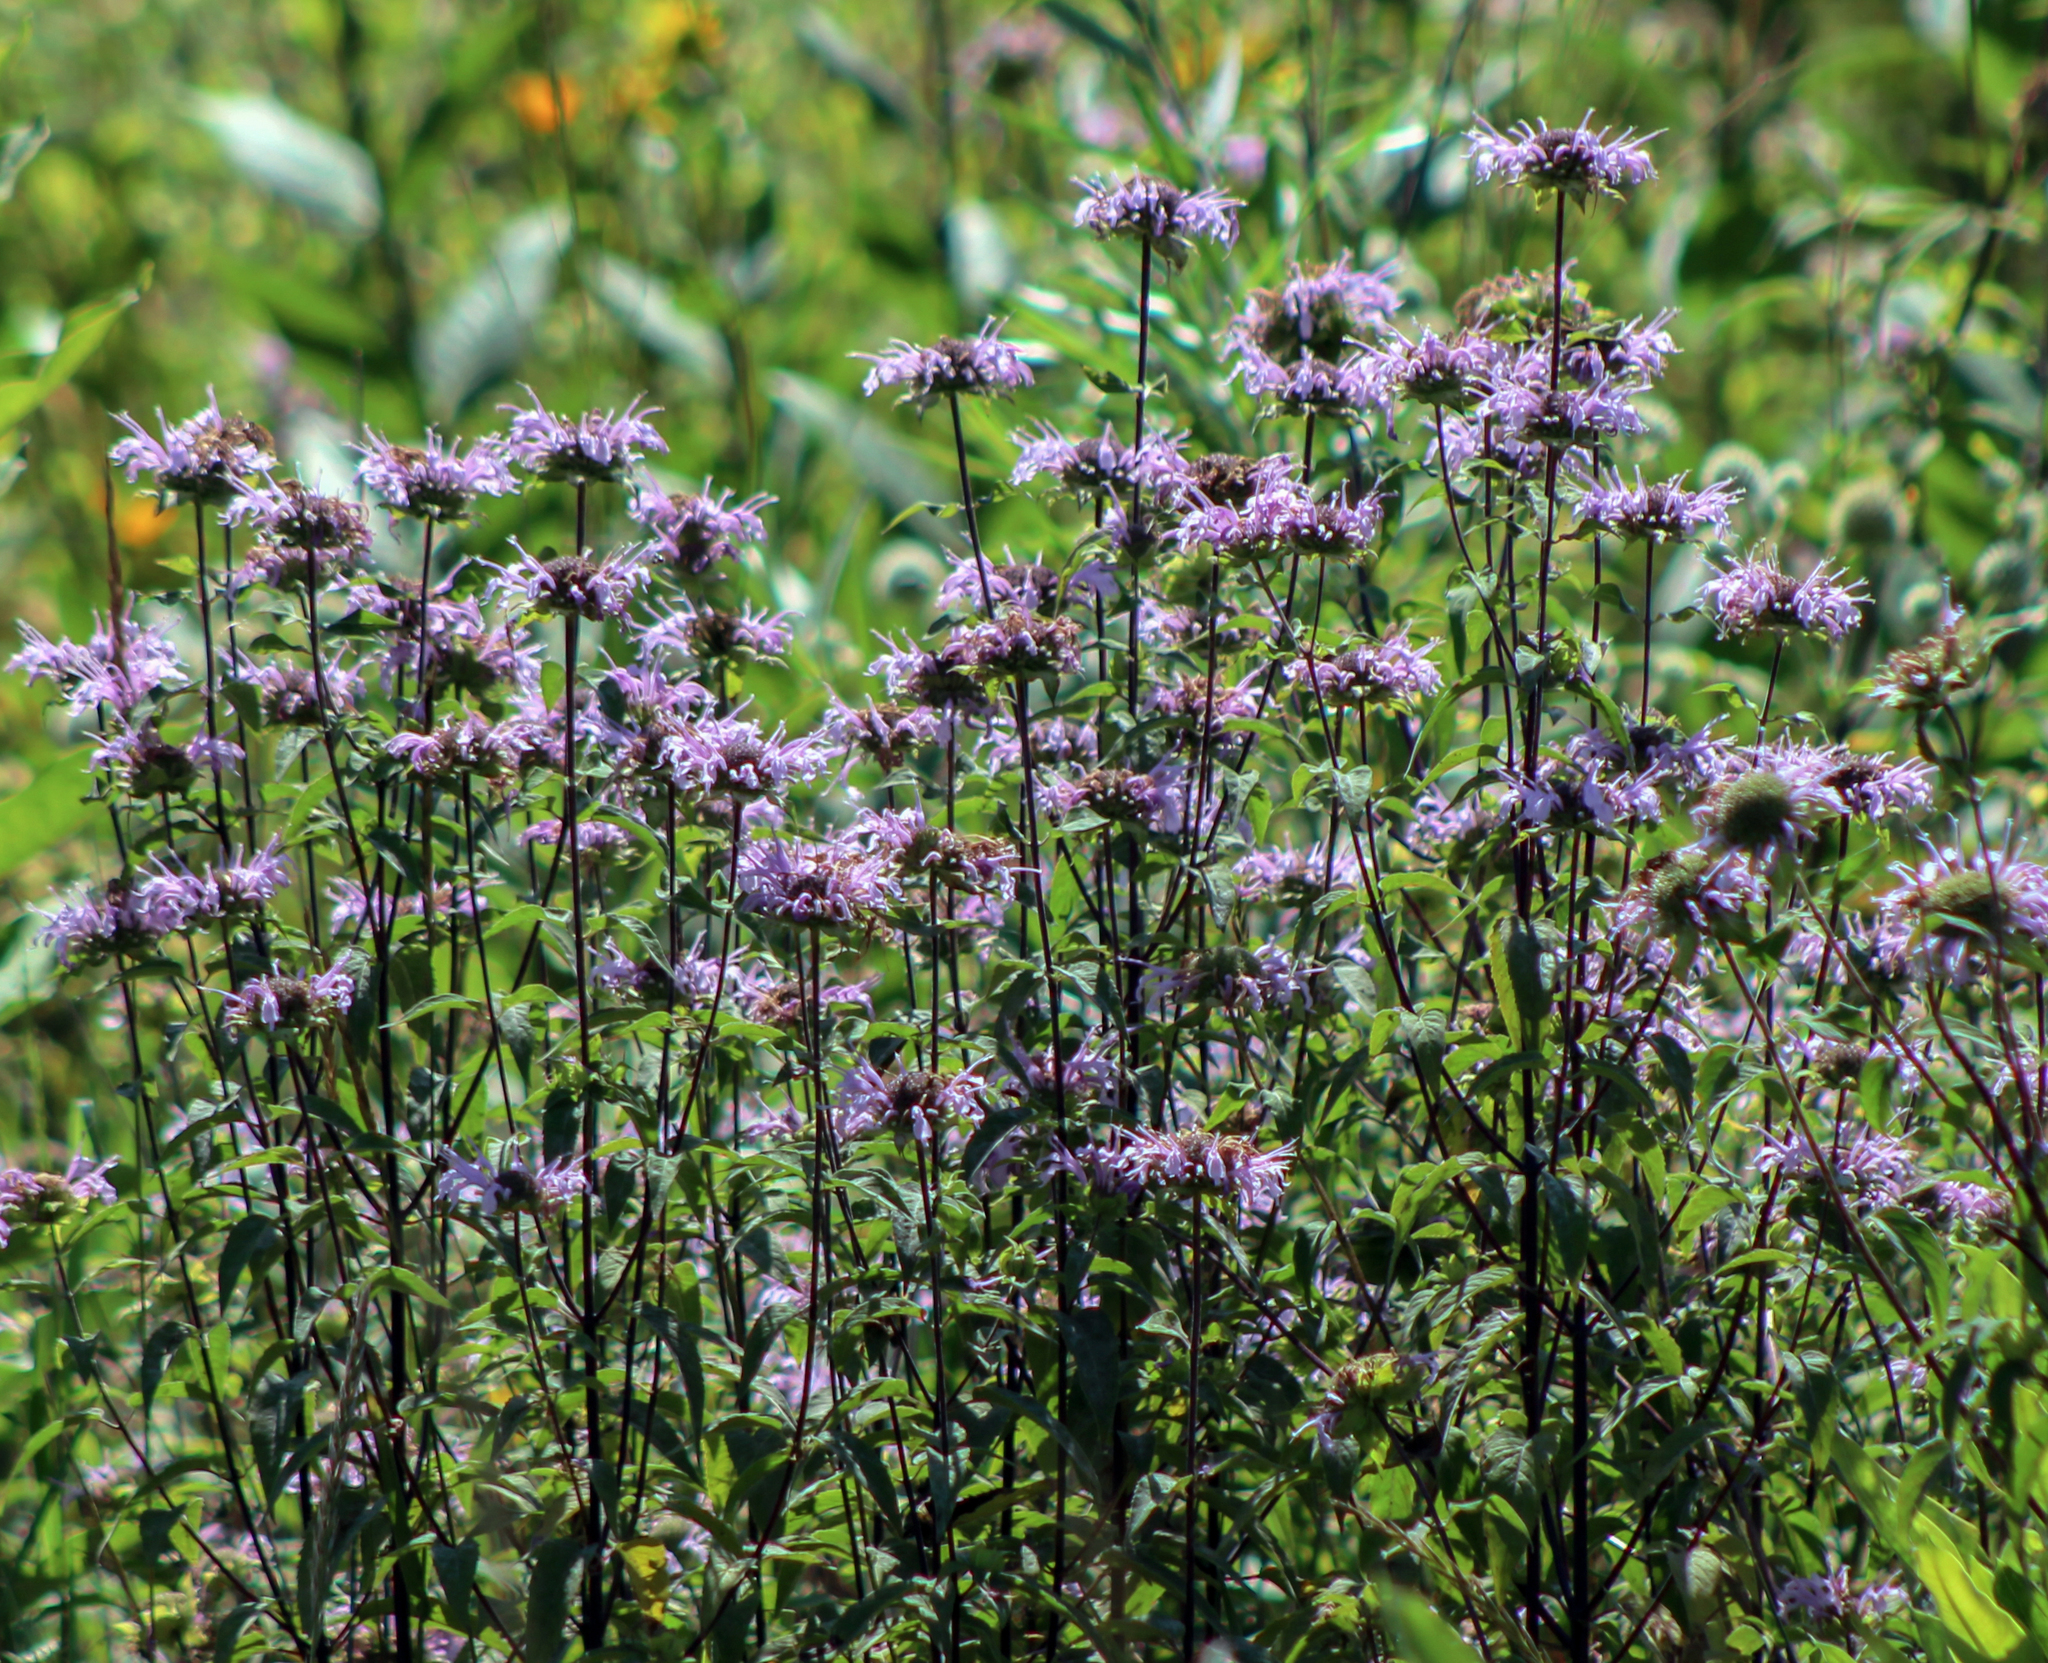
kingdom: Plantae
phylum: Tracheophyta
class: Magnoliopsida
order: Lamiales
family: Lamiaceae
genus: Monarda
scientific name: Monarda fistulosa
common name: Purple beebalm
